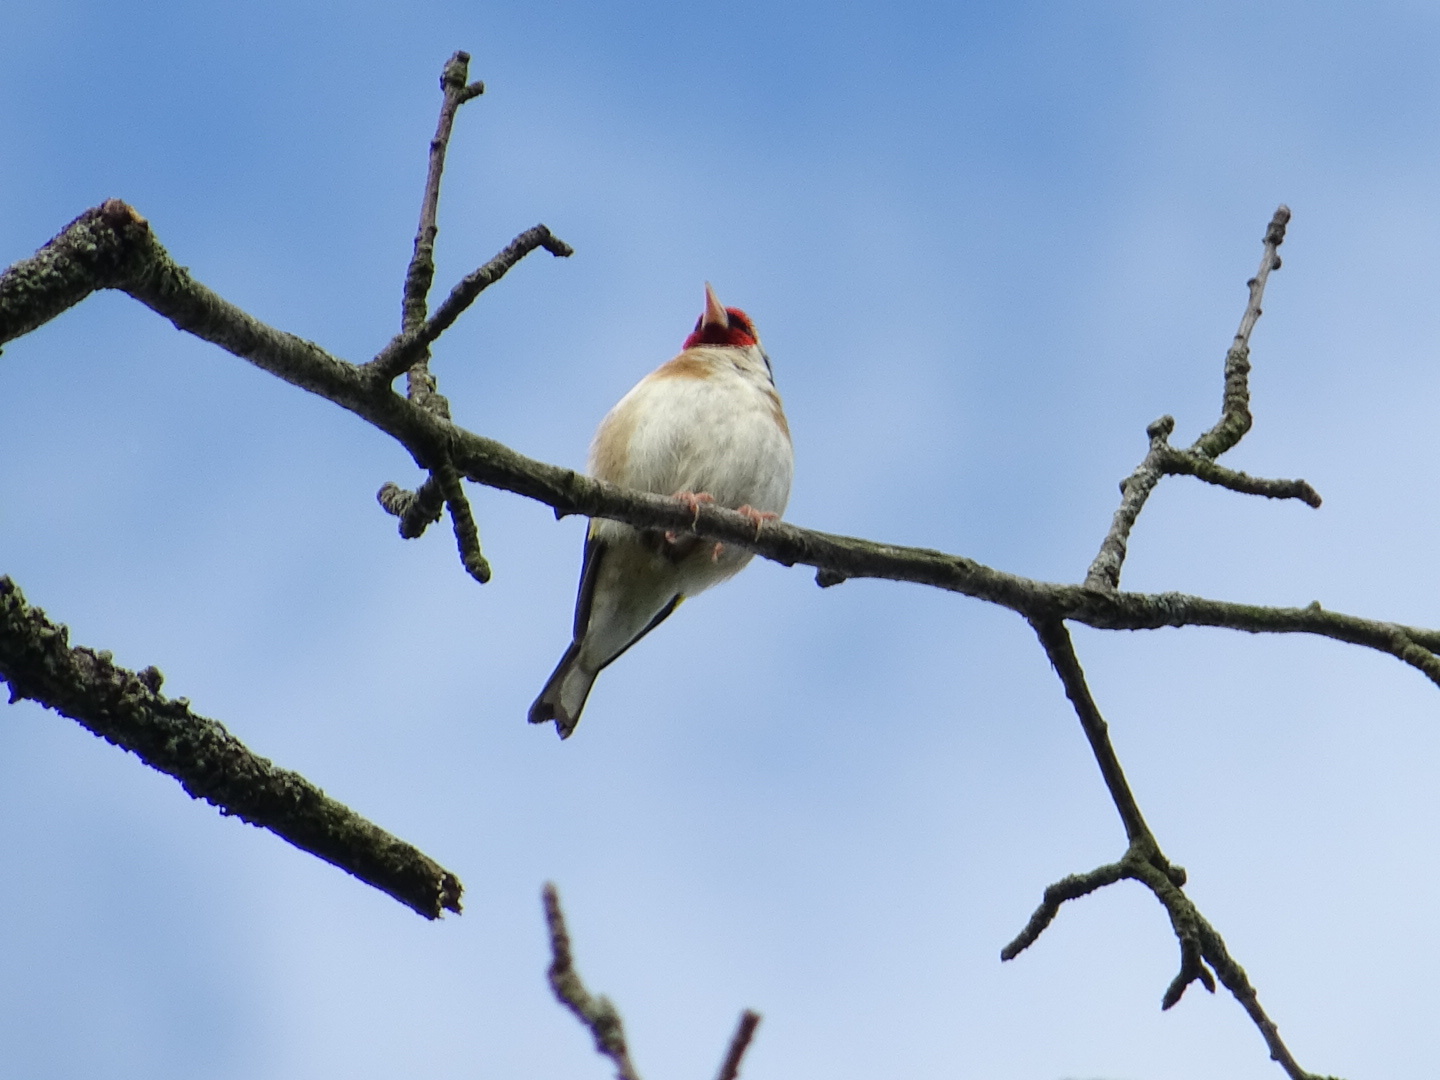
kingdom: Animalia
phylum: Chordata
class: Aves
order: Passeriformes
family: Fringillidae
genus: Carduelis
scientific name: Carduelis carduelis
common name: European goldfinch
